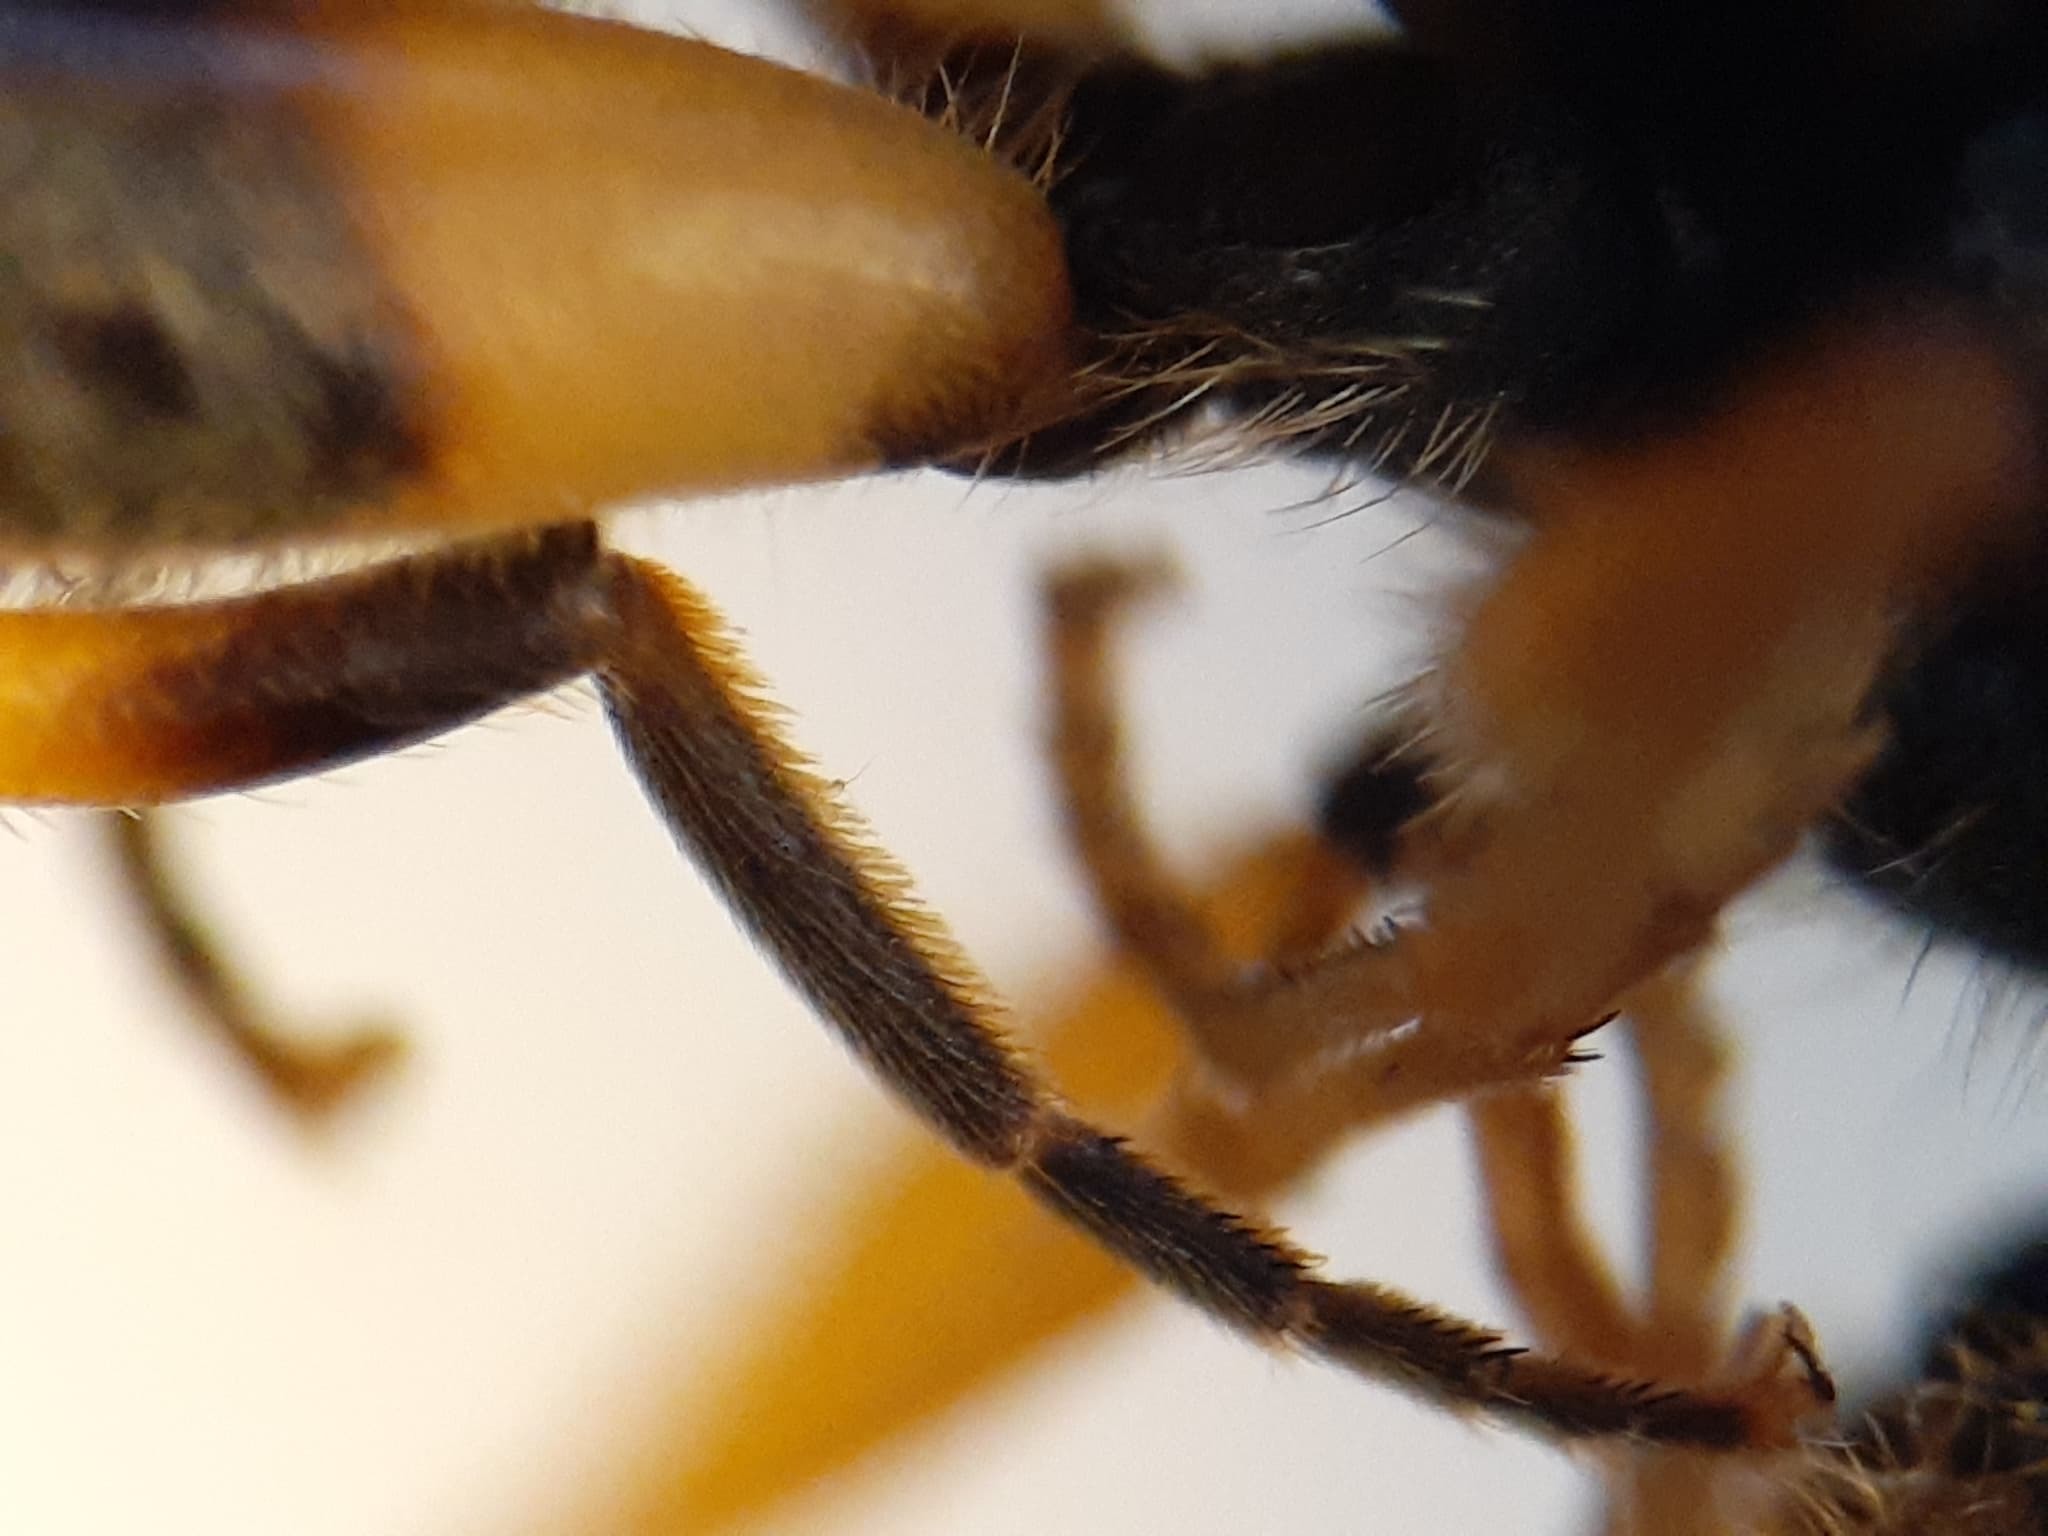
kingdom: Animalia
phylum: Arthropoda
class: Insecta
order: Diptera
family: Syrphidae
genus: Parhelophilus
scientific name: Parhelophilus laetus
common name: Common bog fly
